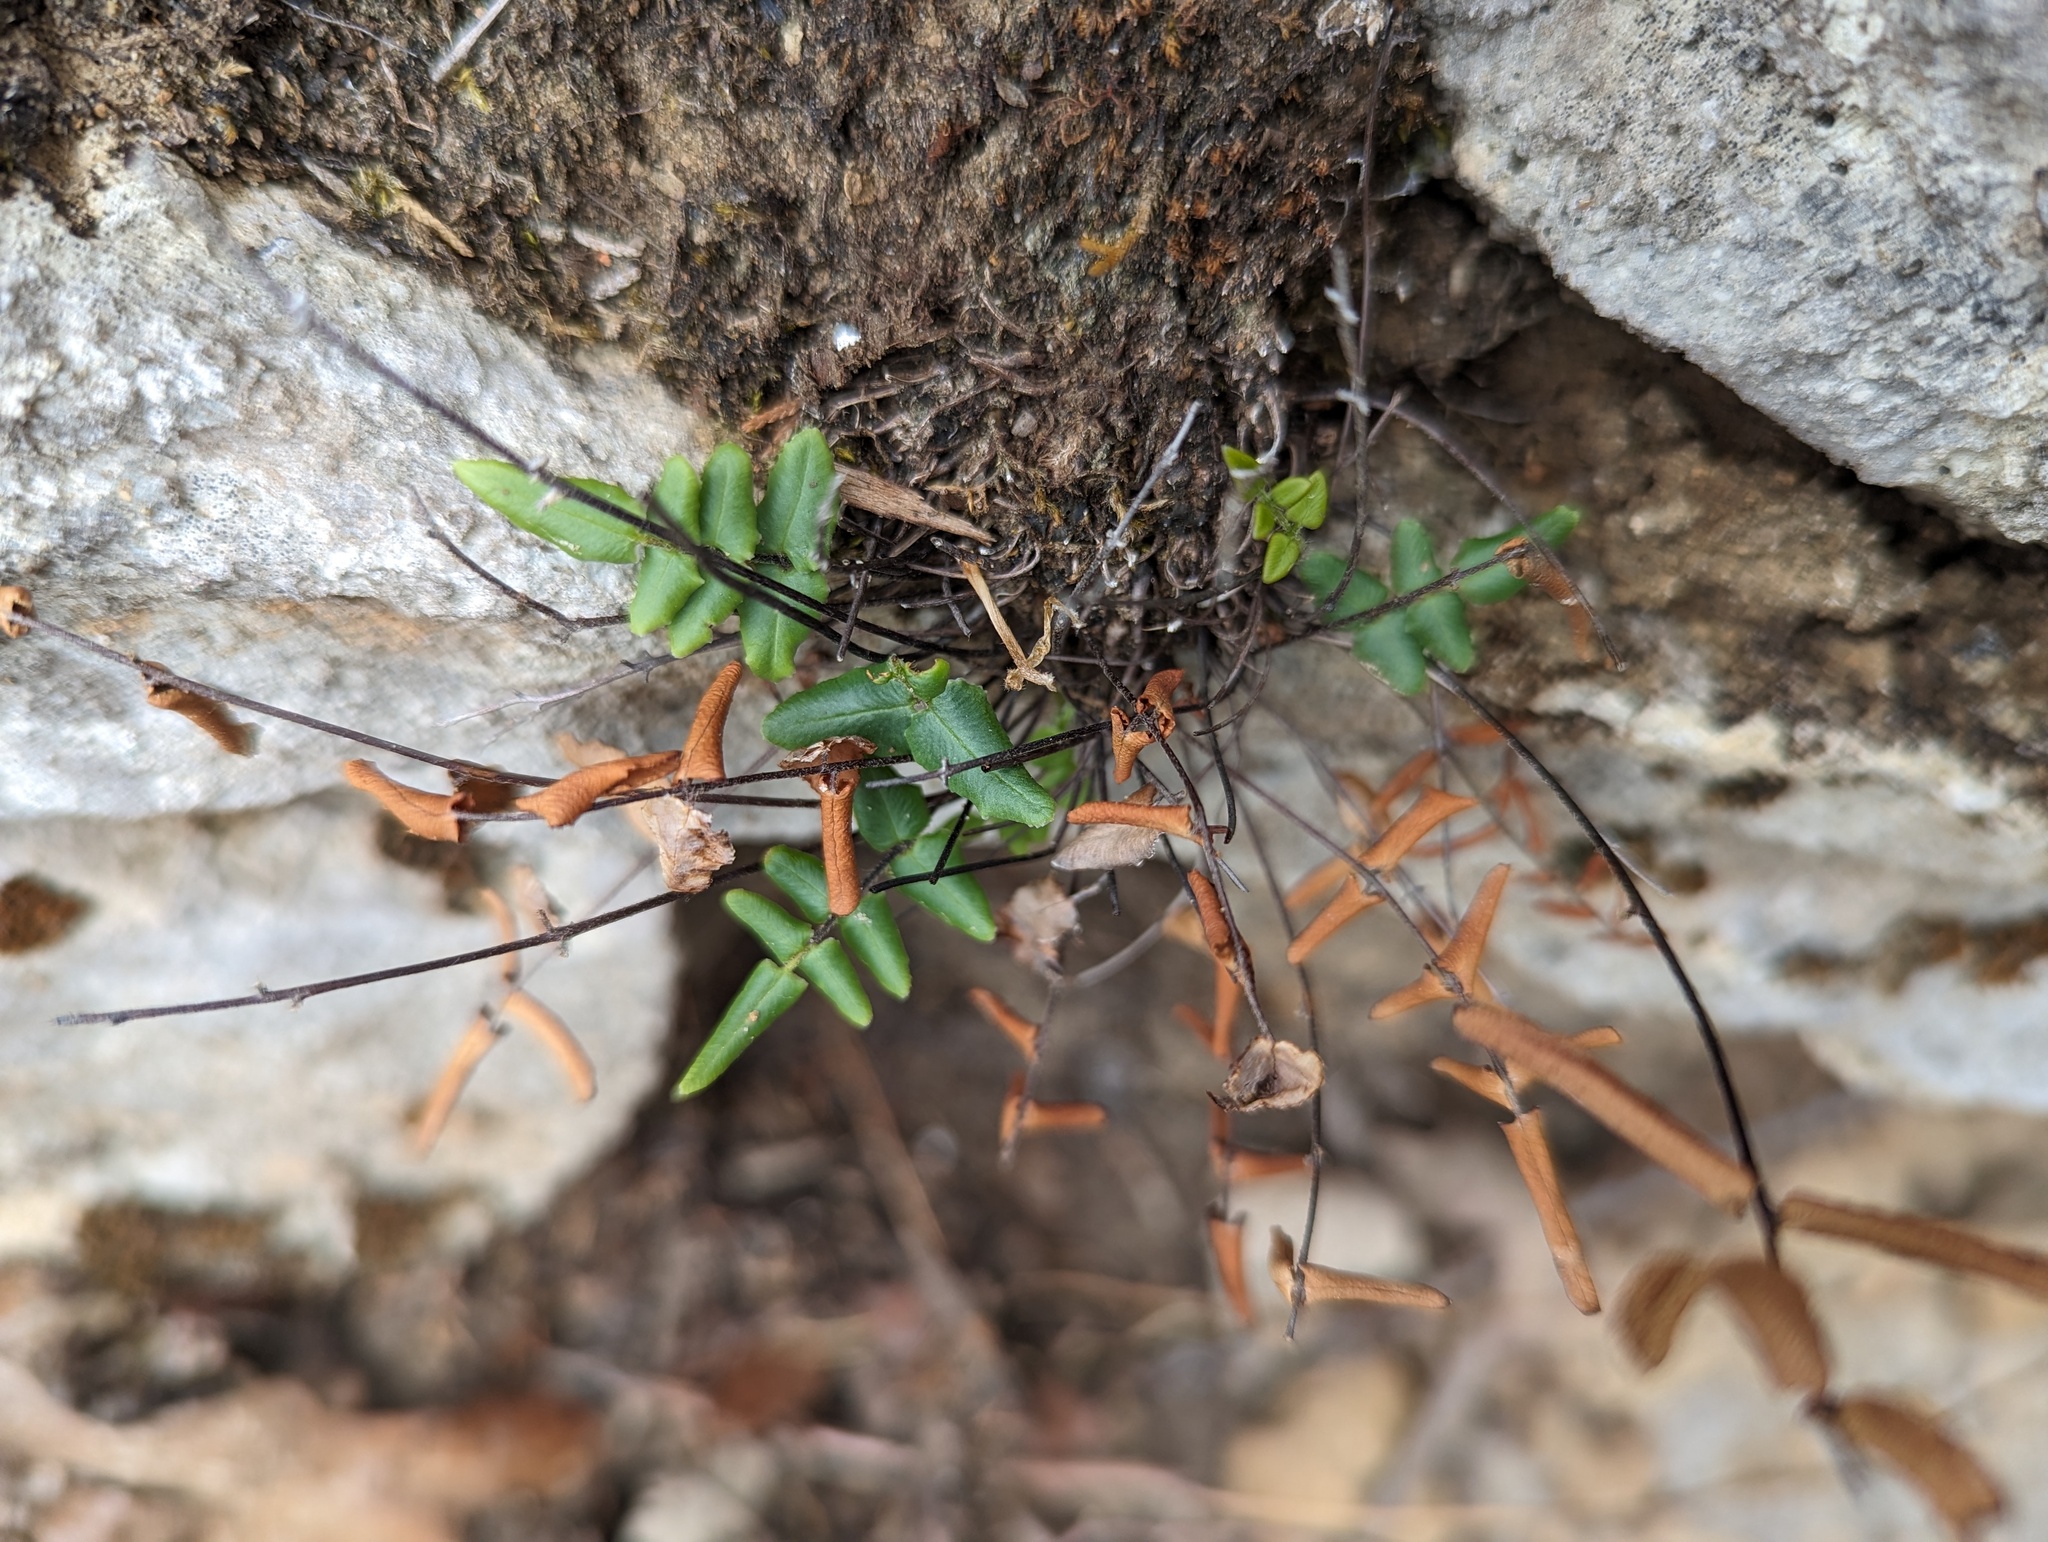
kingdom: Plantae
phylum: Tracheophyta
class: Polypodiopsida
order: Polypodiales
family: Pteridaceae
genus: Pellaea
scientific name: Pellaea atropurpurea
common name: Hairy cliffbrake
